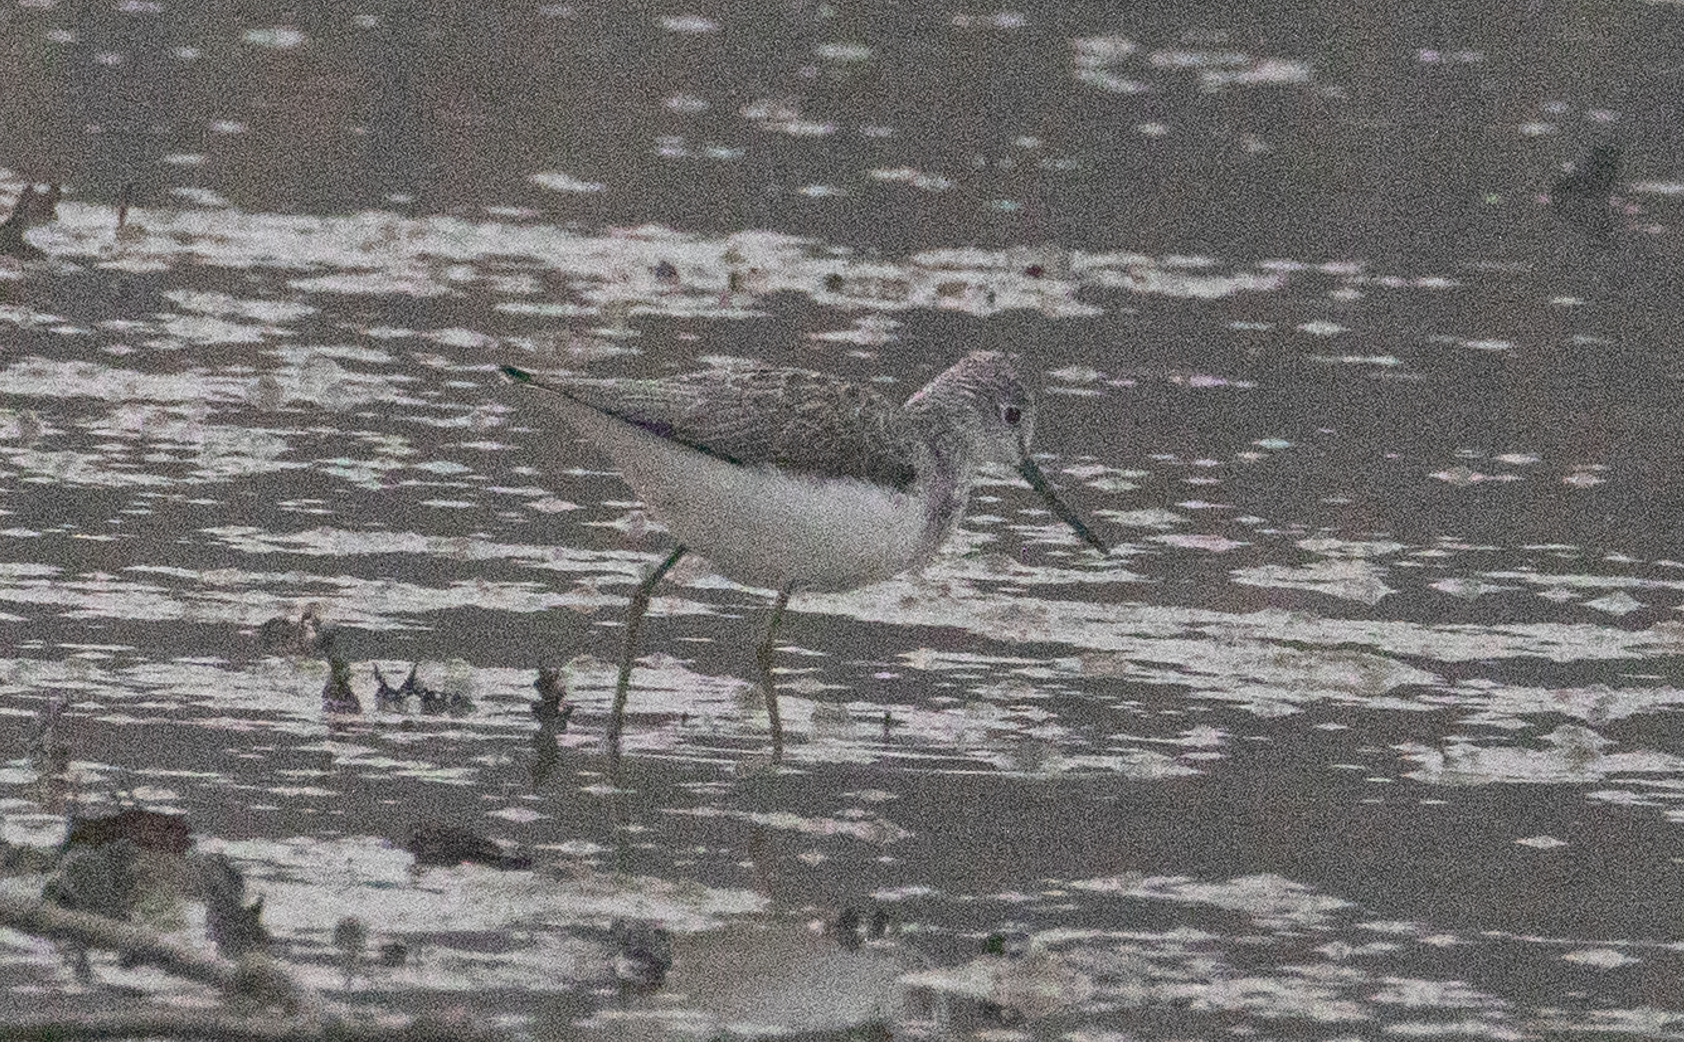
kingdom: Animalia
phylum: Chordata
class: Aves
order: Charadriiformes
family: Scolopacidae
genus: Tringa
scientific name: Tringa nebularia
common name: Common greenshank
